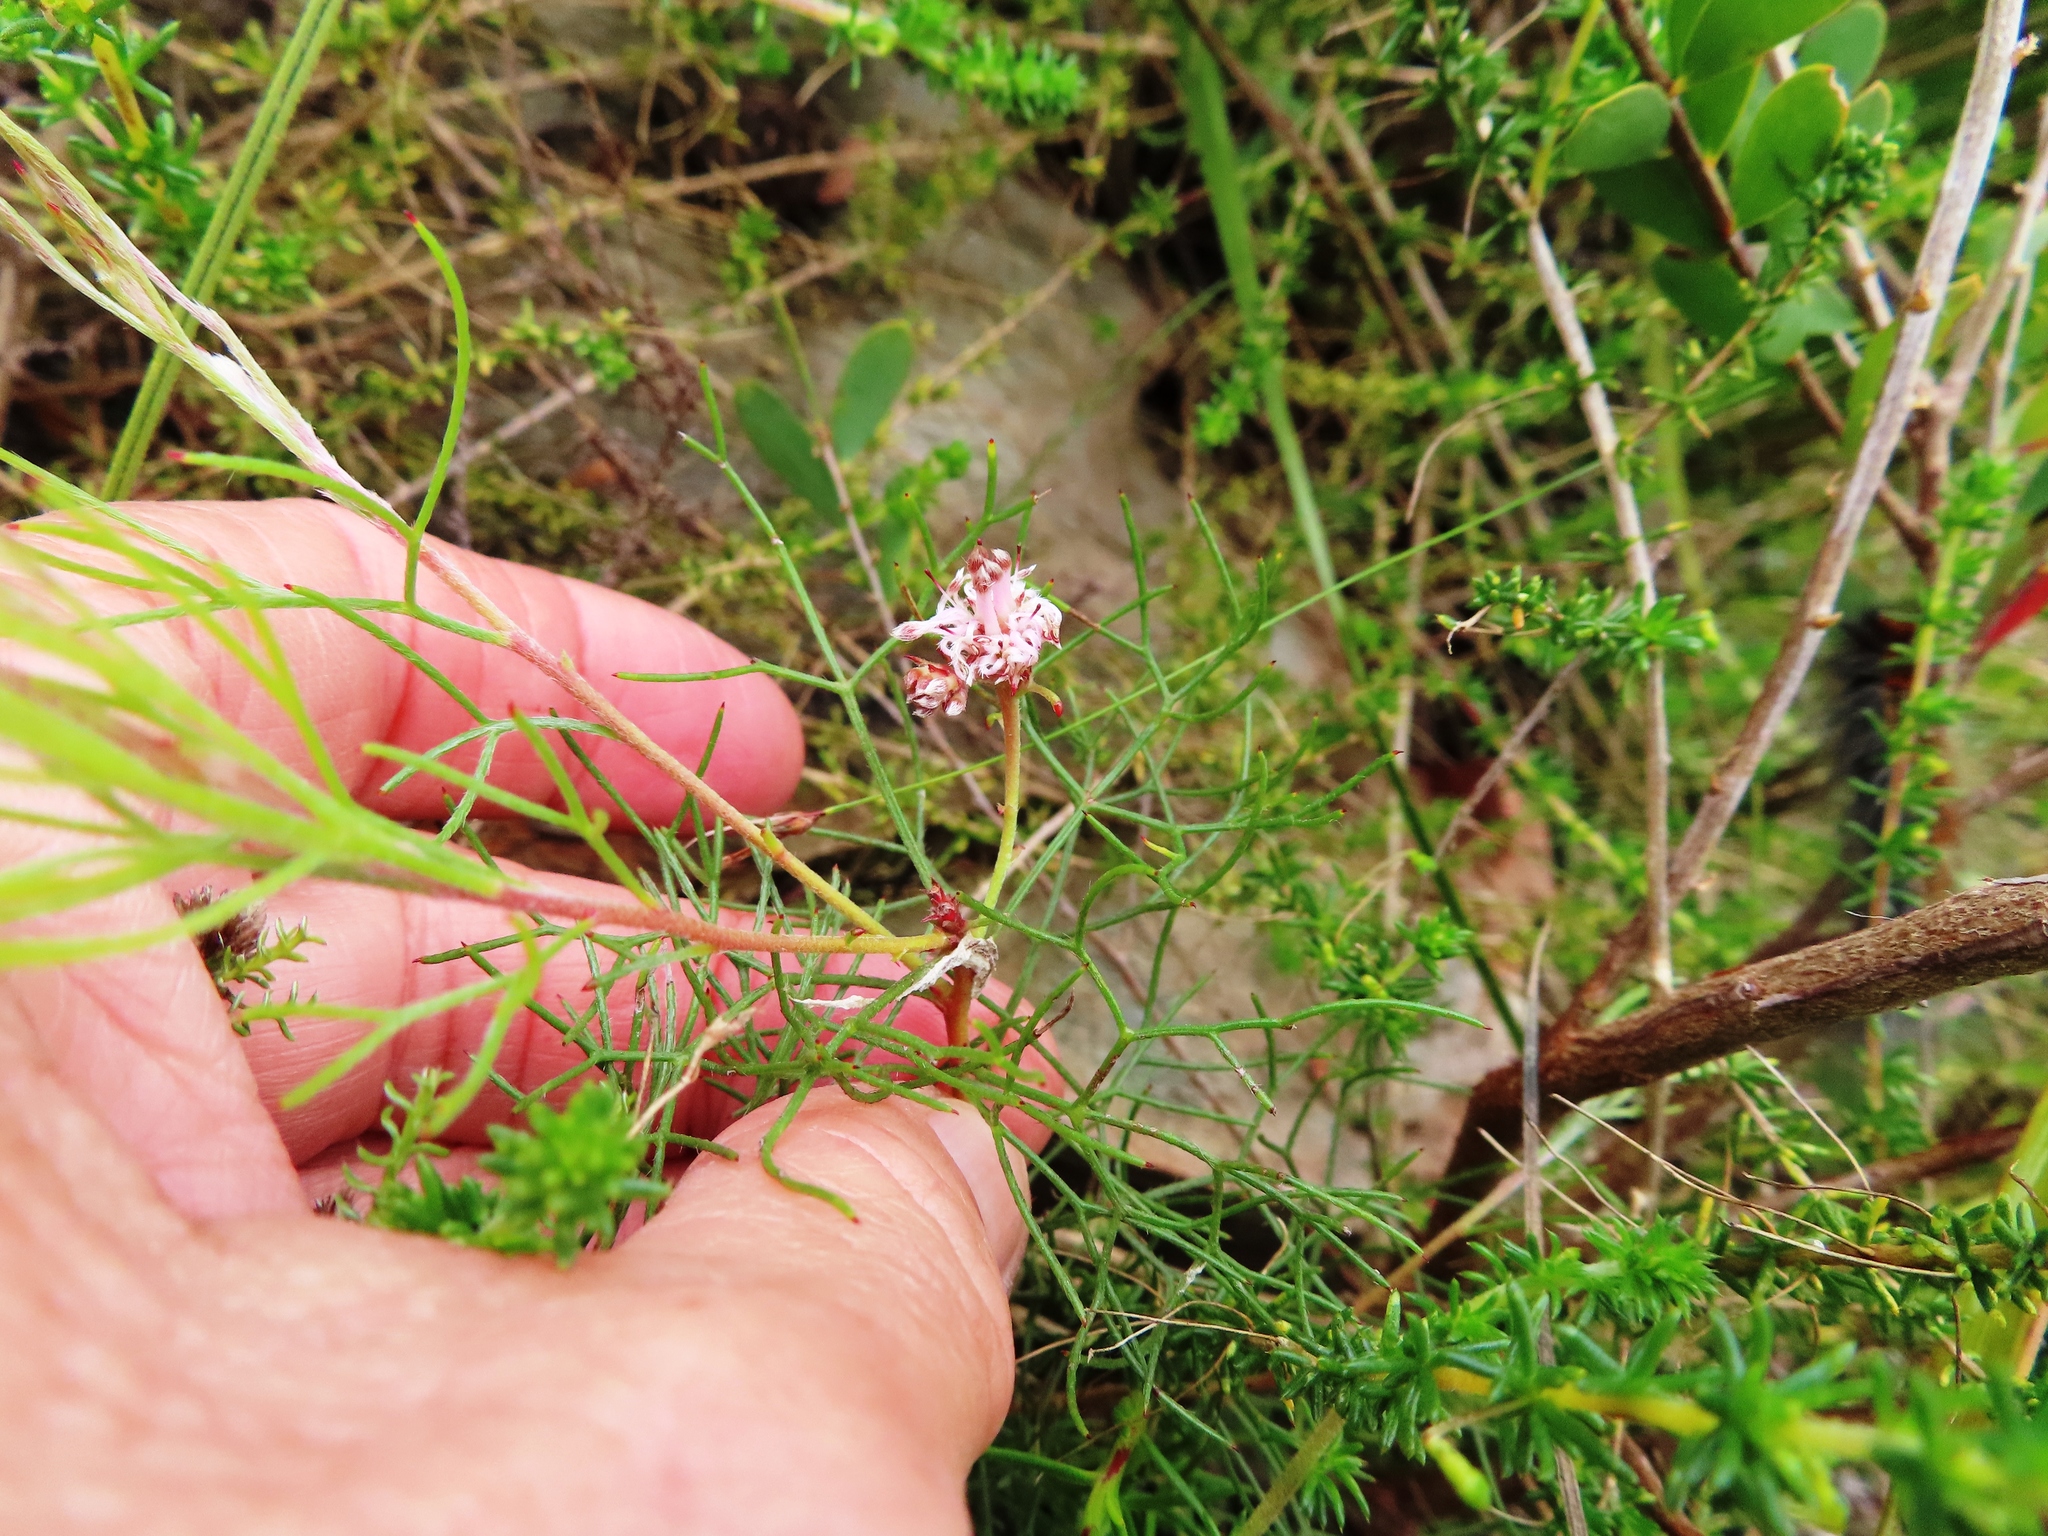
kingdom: Plantae
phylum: Tracheophyta
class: Magnoliopsida
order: Proteales
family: Proteaceae
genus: Serruria
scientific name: Serruria fasciflora
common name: Common pin spiderhead
